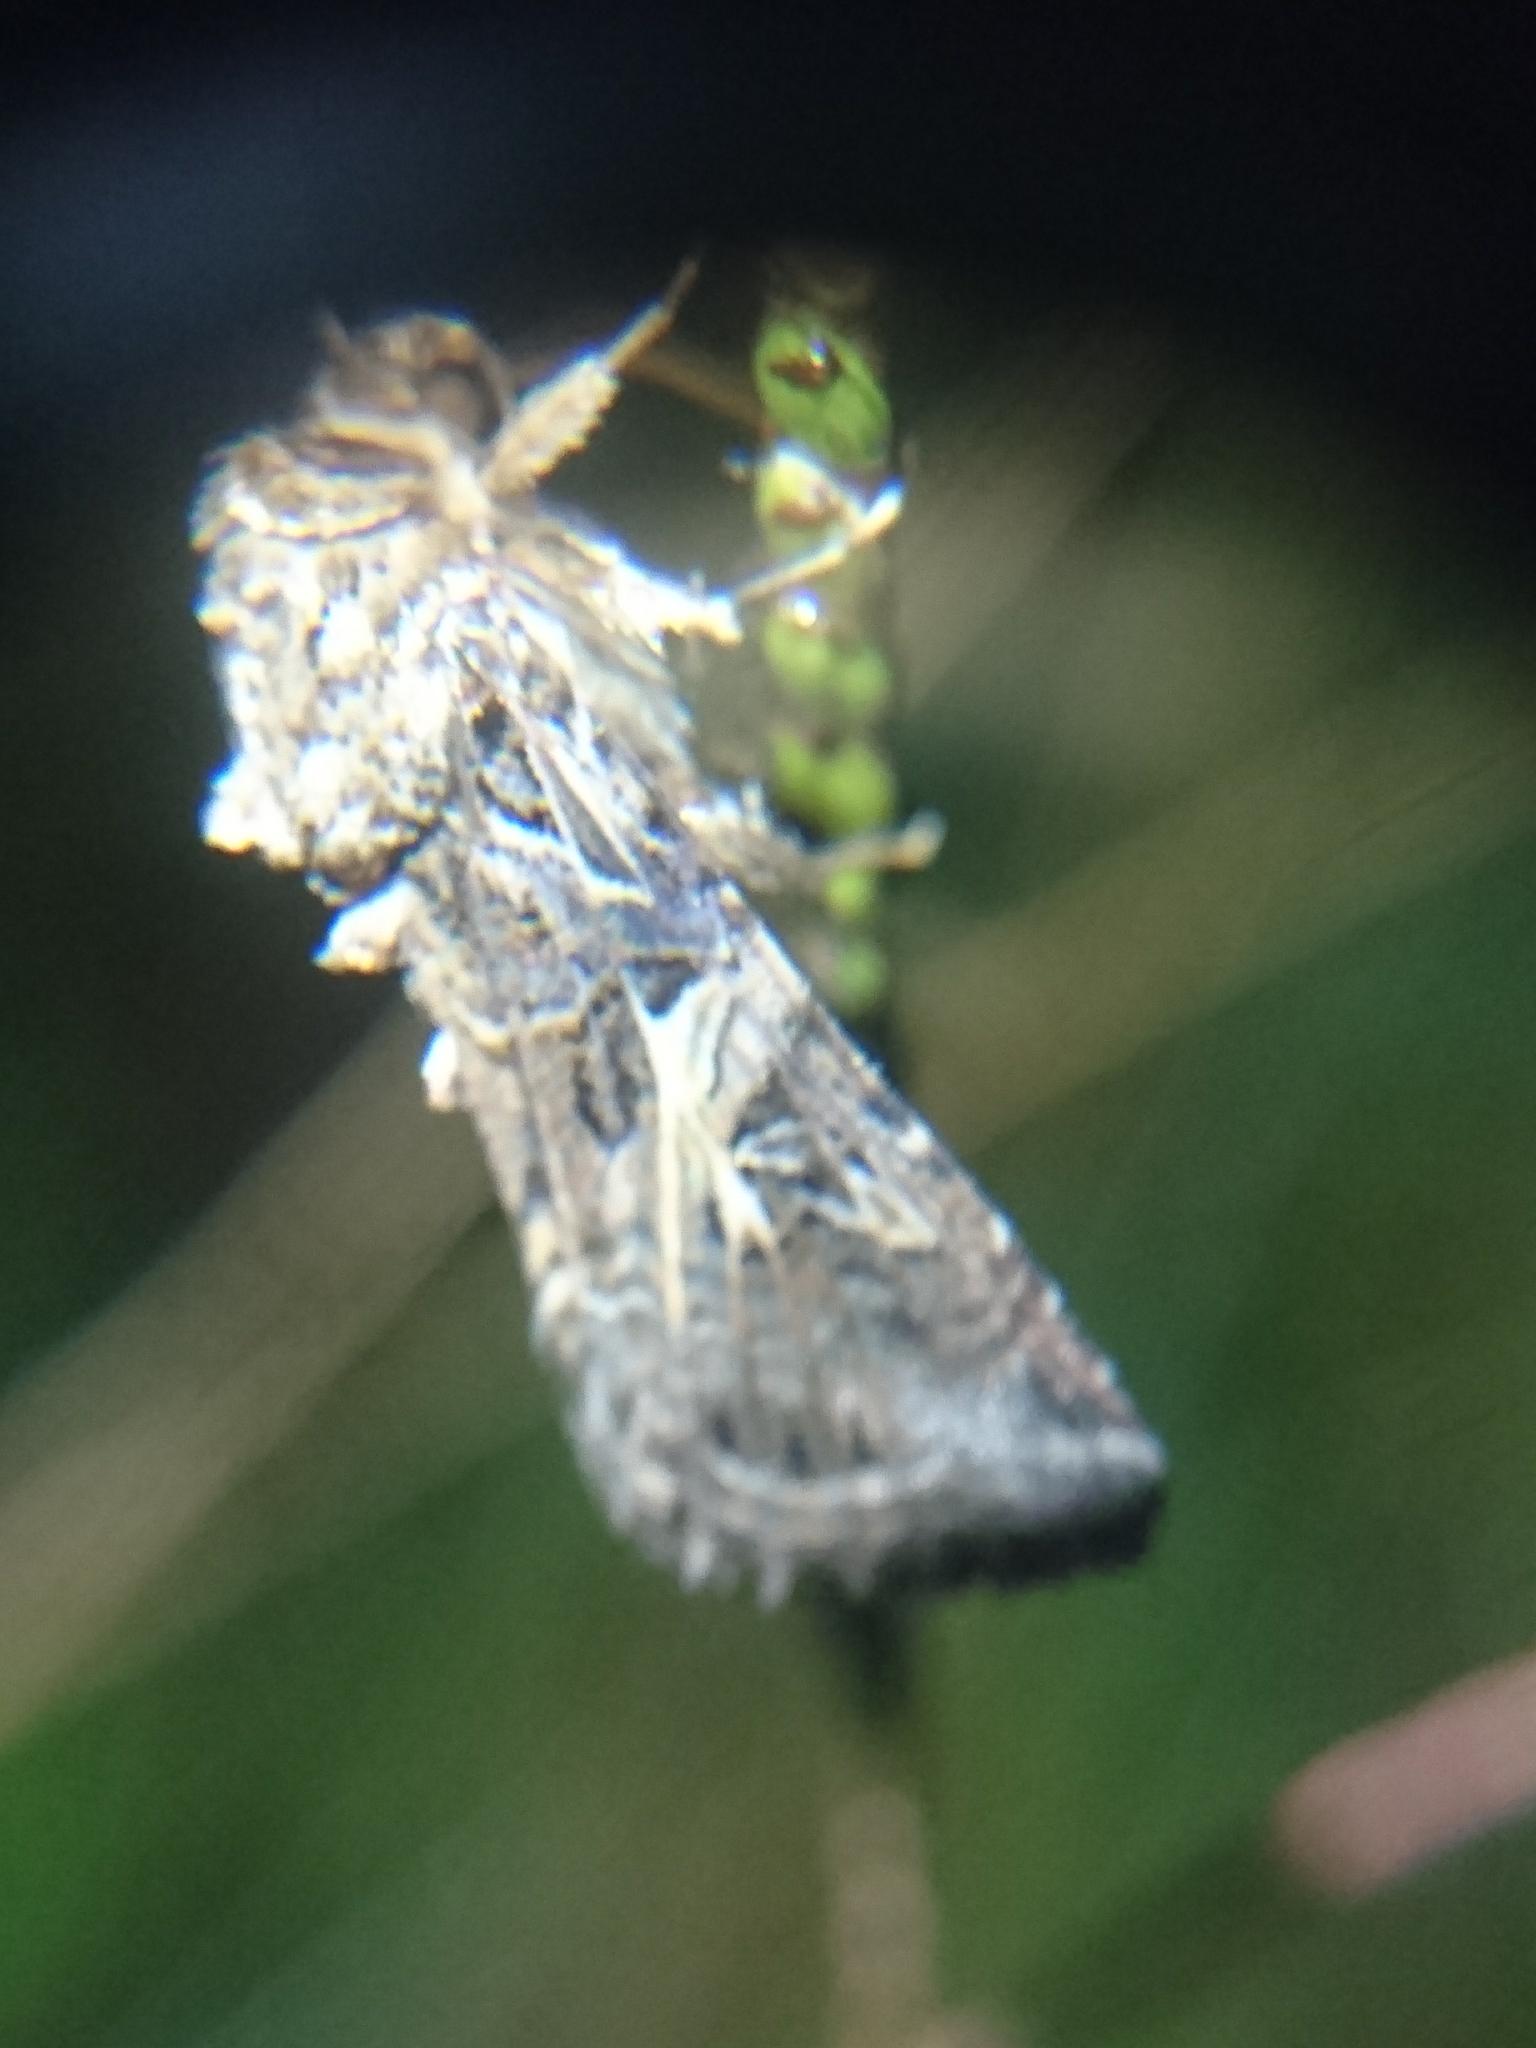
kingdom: Animalia
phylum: Arthropoda
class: Insecta
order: Lepidoptera
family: Noctuidae
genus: Spodoptera
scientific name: Spodoptera ornithogalli
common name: Yellow-striped armyworm
